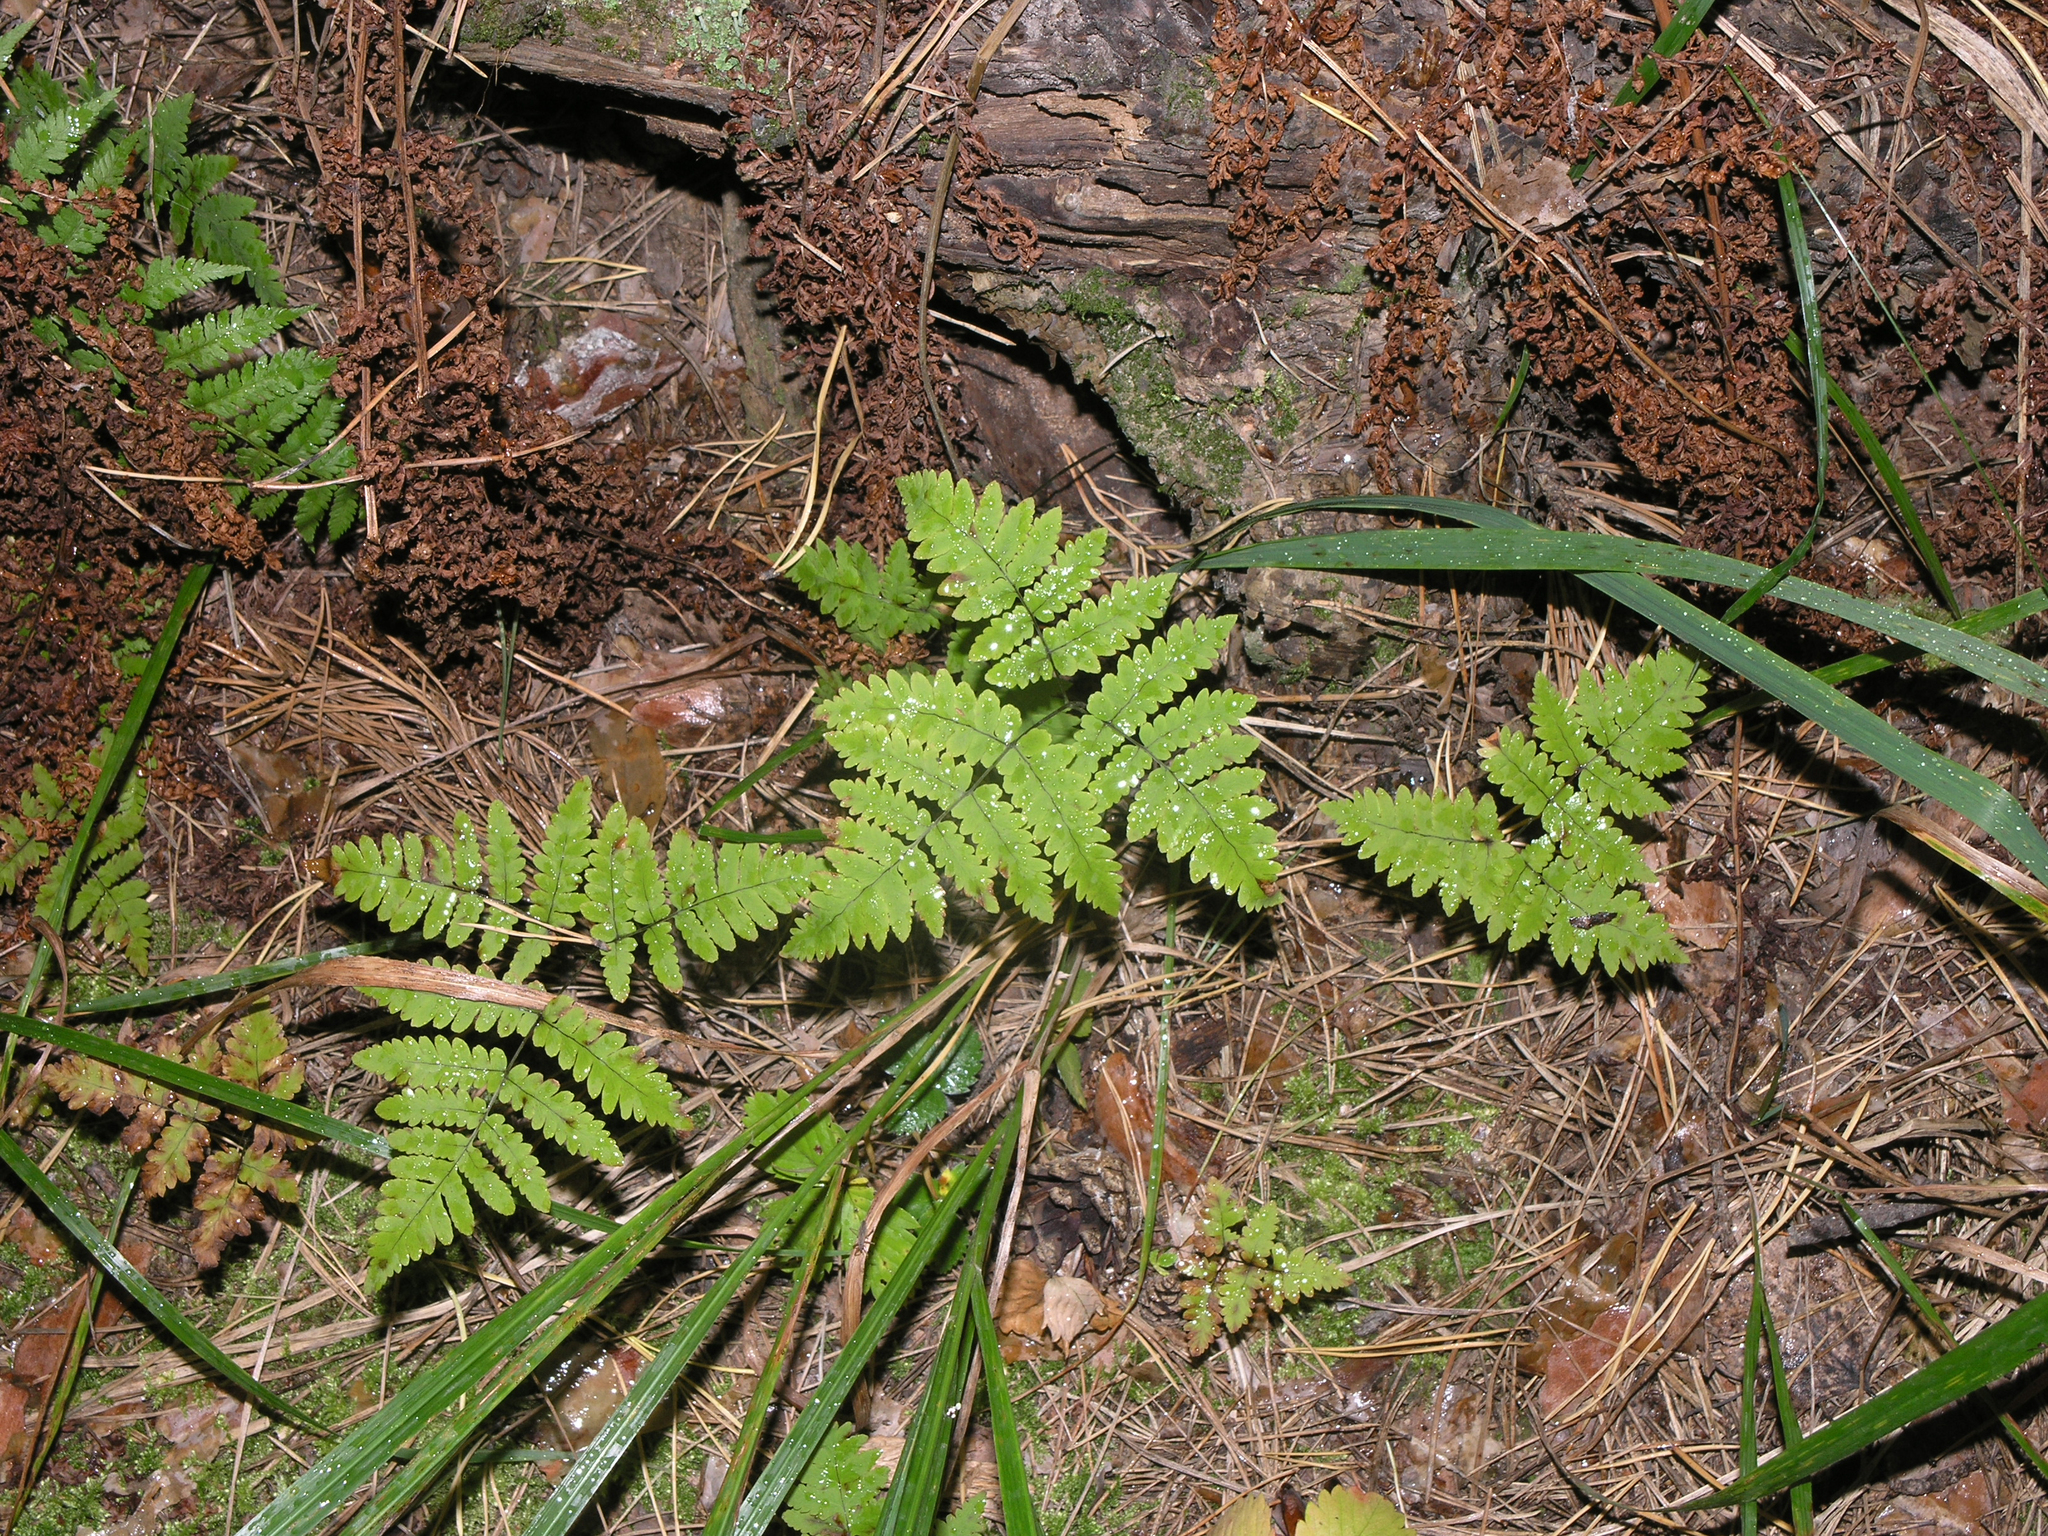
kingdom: Plantae
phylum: Tracheophyta
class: Polypodiopsida
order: Polypodiales
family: Cystopteridaceae
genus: Gymnocarpium
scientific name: Gymnocarpium dryopteris
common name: Oak fern
